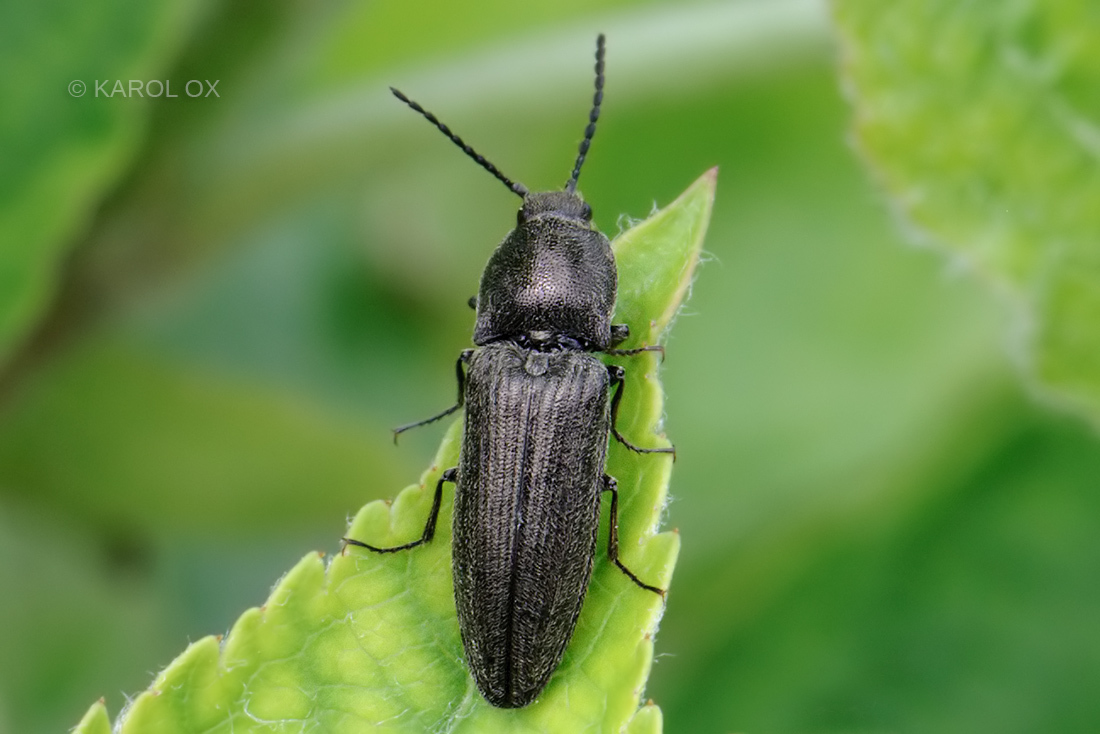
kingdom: Animalia
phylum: Arthropoda
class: Insecta
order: Coleoptera
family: Elateridae
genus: Cidnopus
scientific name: Cidnopus pilosus
